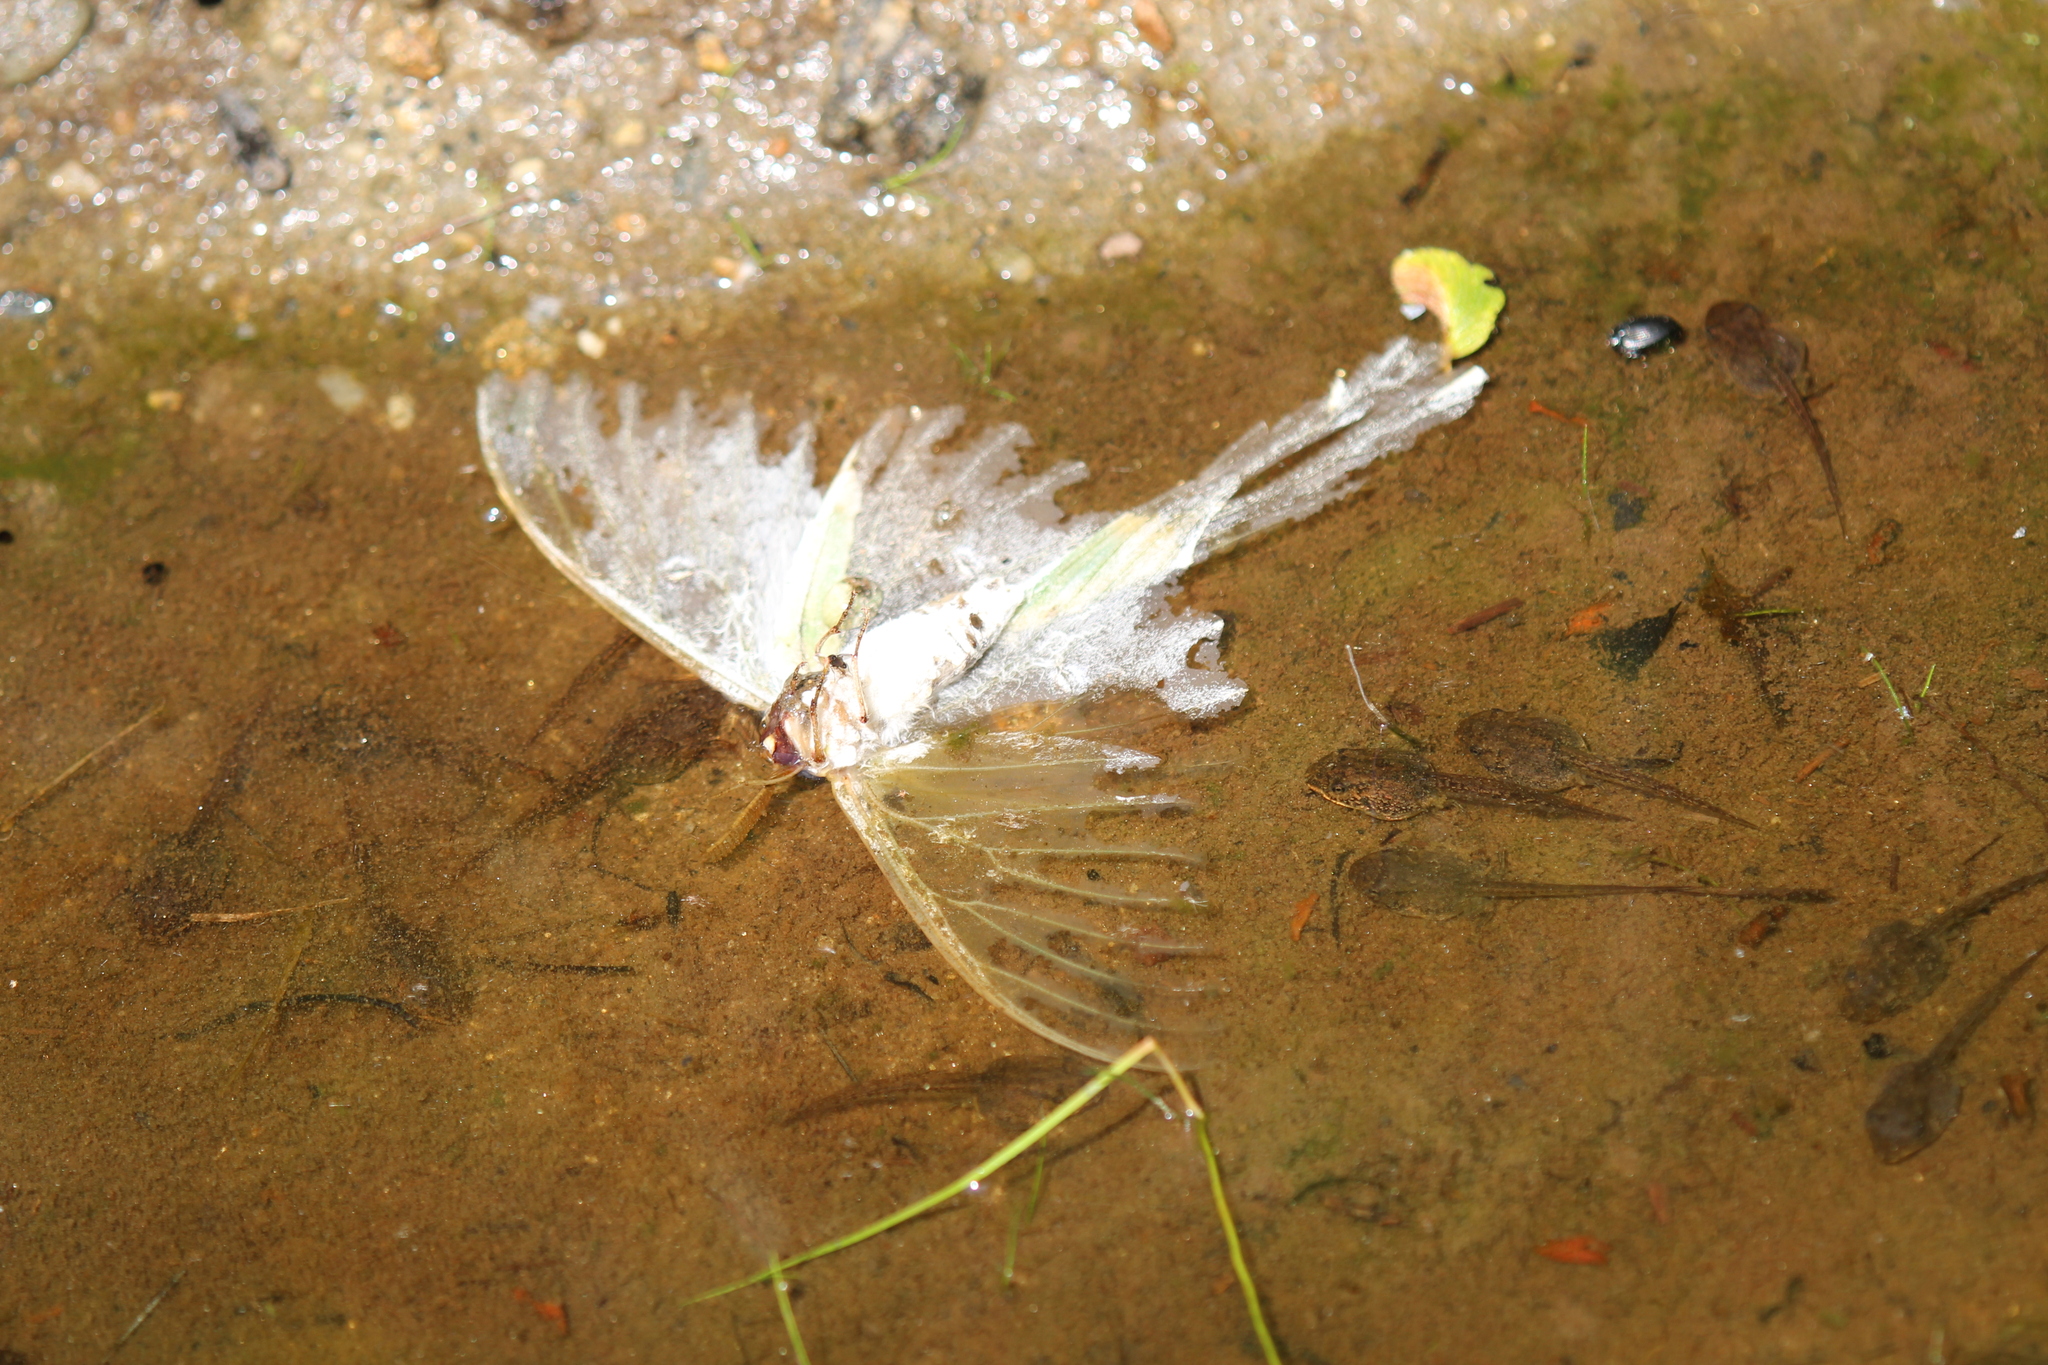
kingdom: Animalia
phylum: Arthropoda
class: Insecta
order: Lepidoptera
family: Saturniidae
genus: Actias
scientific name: Actias luna
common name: Luna moth
